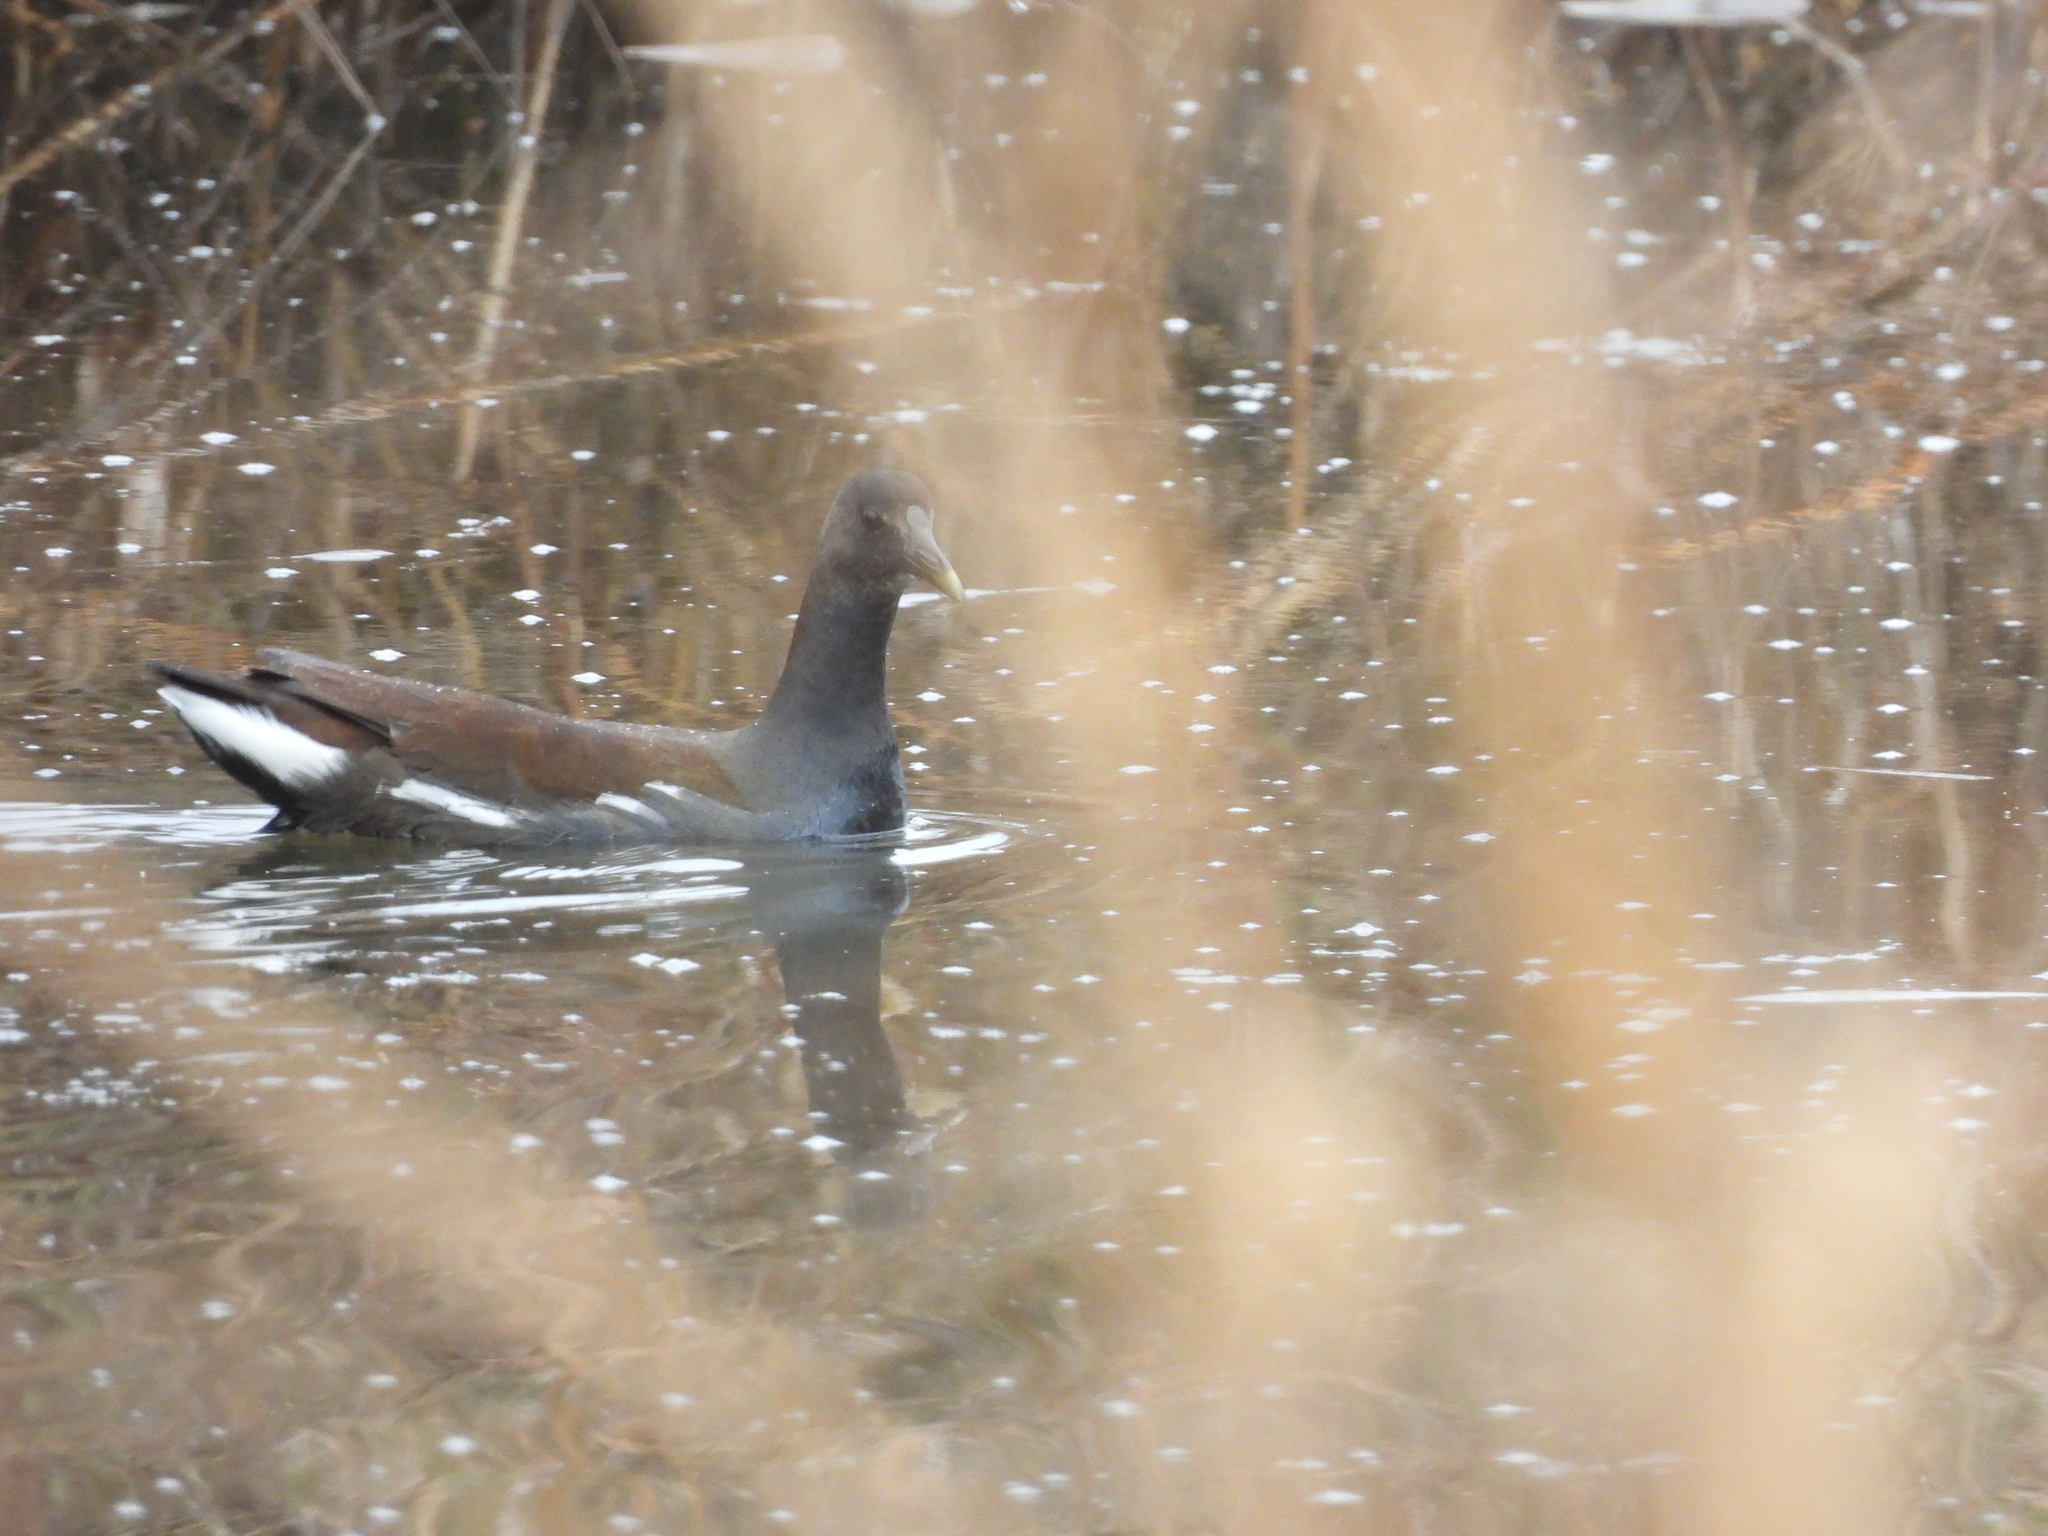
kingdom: Animalia
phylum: Chordata
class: Aves
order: Gruiformes
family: Rallidae
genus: Gallinula
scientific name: Gallinula chloropus
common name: Common moorhen
